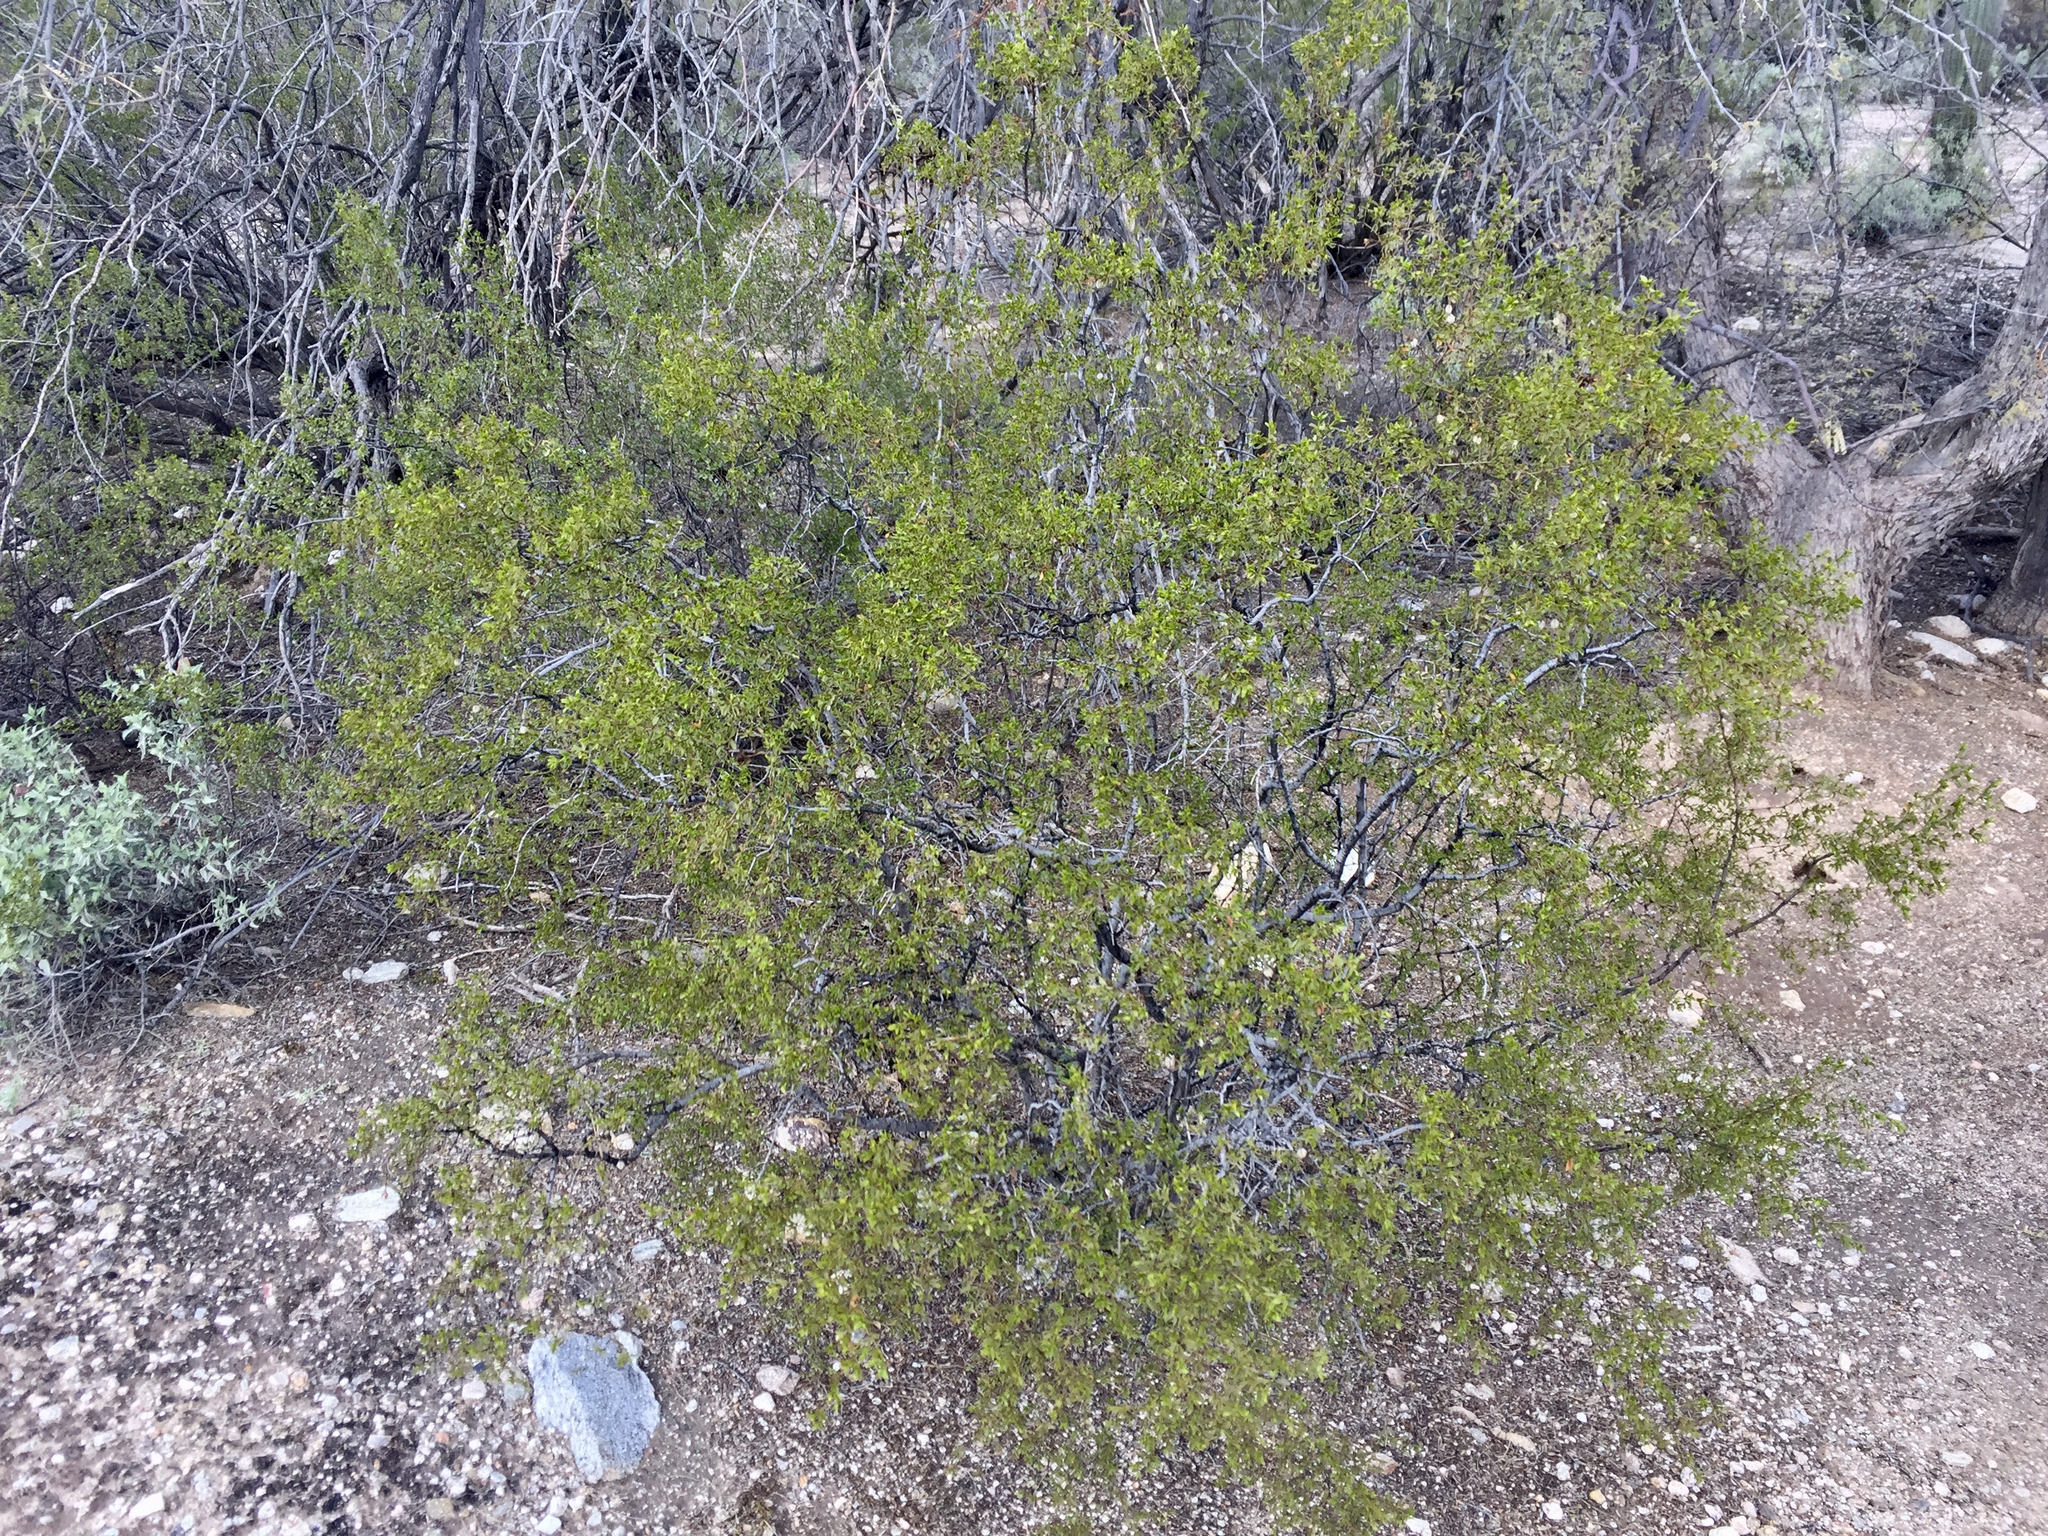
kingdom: Plantae
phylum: Tracheophyta
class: Magnoliopsida
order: Zygophyllales
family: Zygophyllaceae
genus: Larrea
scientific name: Larrea tridentata
